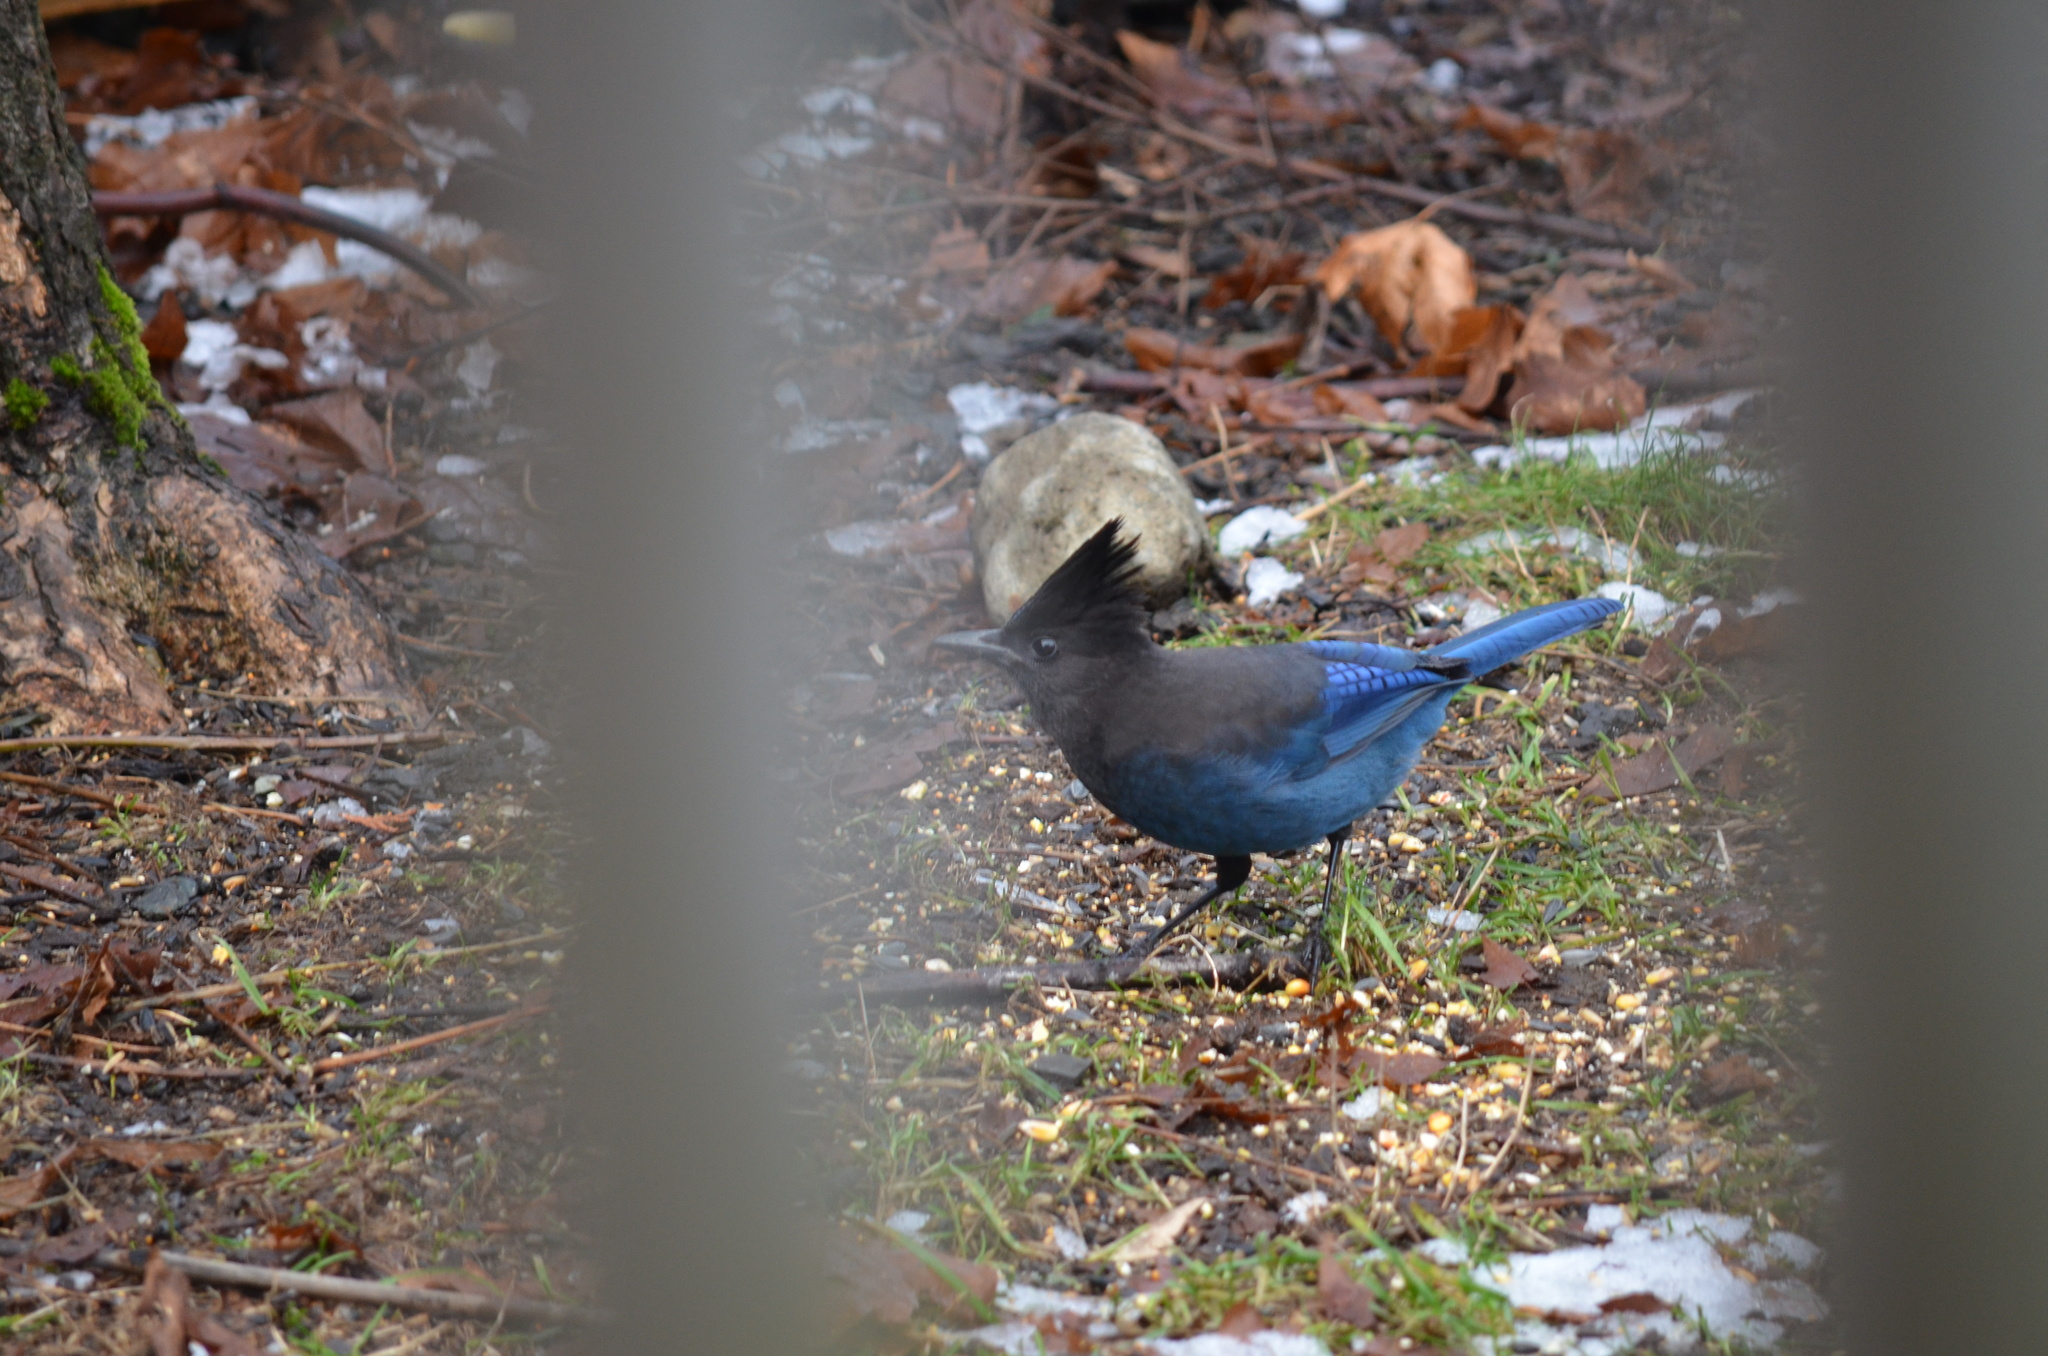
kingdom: Animalia
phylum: Chordata
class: Aves
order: Passeriformes
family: Corvidae
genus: Cyanocitta
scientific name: Cyanocitta stelleri
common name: Steller's jay
